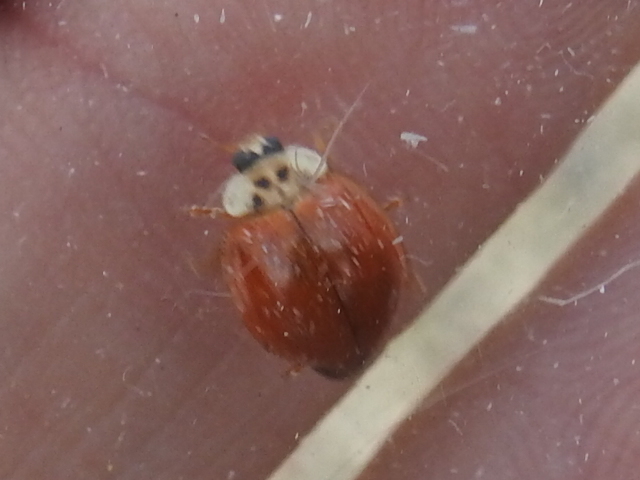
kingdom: Animalia
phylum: Arthropoda
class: Insecta
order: Coleoptera
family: Coccinellidae
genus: Harmonia
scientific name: Harmonia axyridis
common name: Harlequin ladybird
